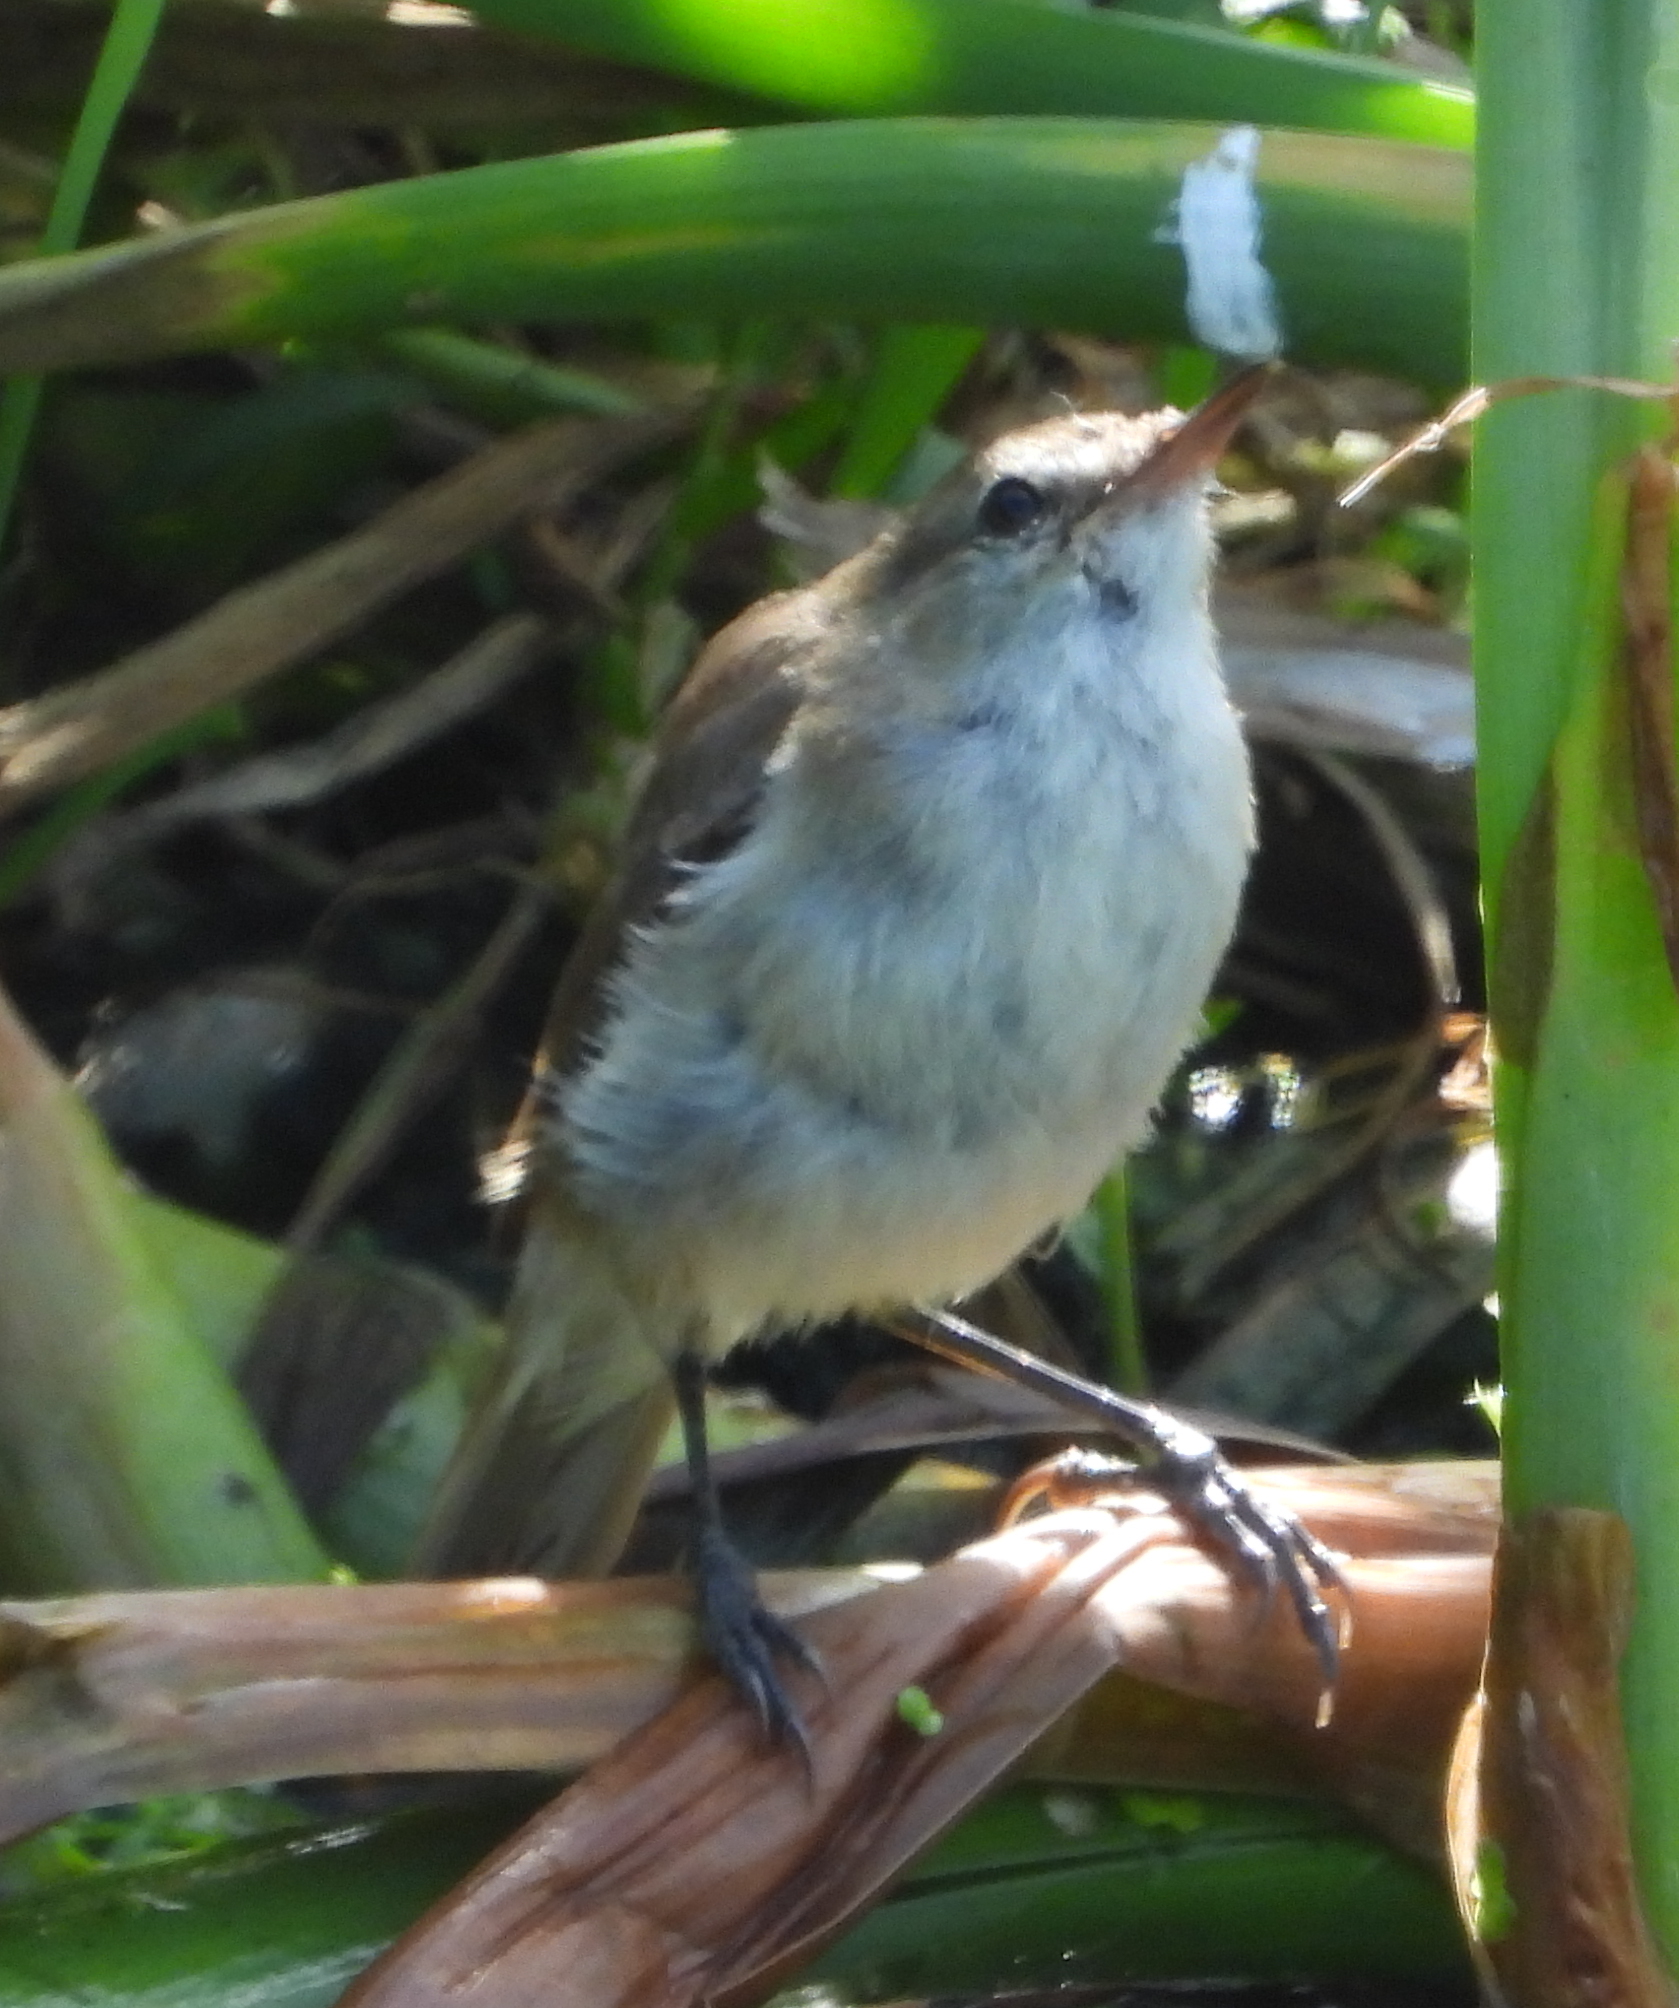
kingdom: Animalia
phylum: Chordata
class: Aves
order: Passeriformes
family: Acrocephalidae
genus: Acrocephalus
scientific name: Acrocephalus gracilirostris
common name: Lesser swamp warbler
